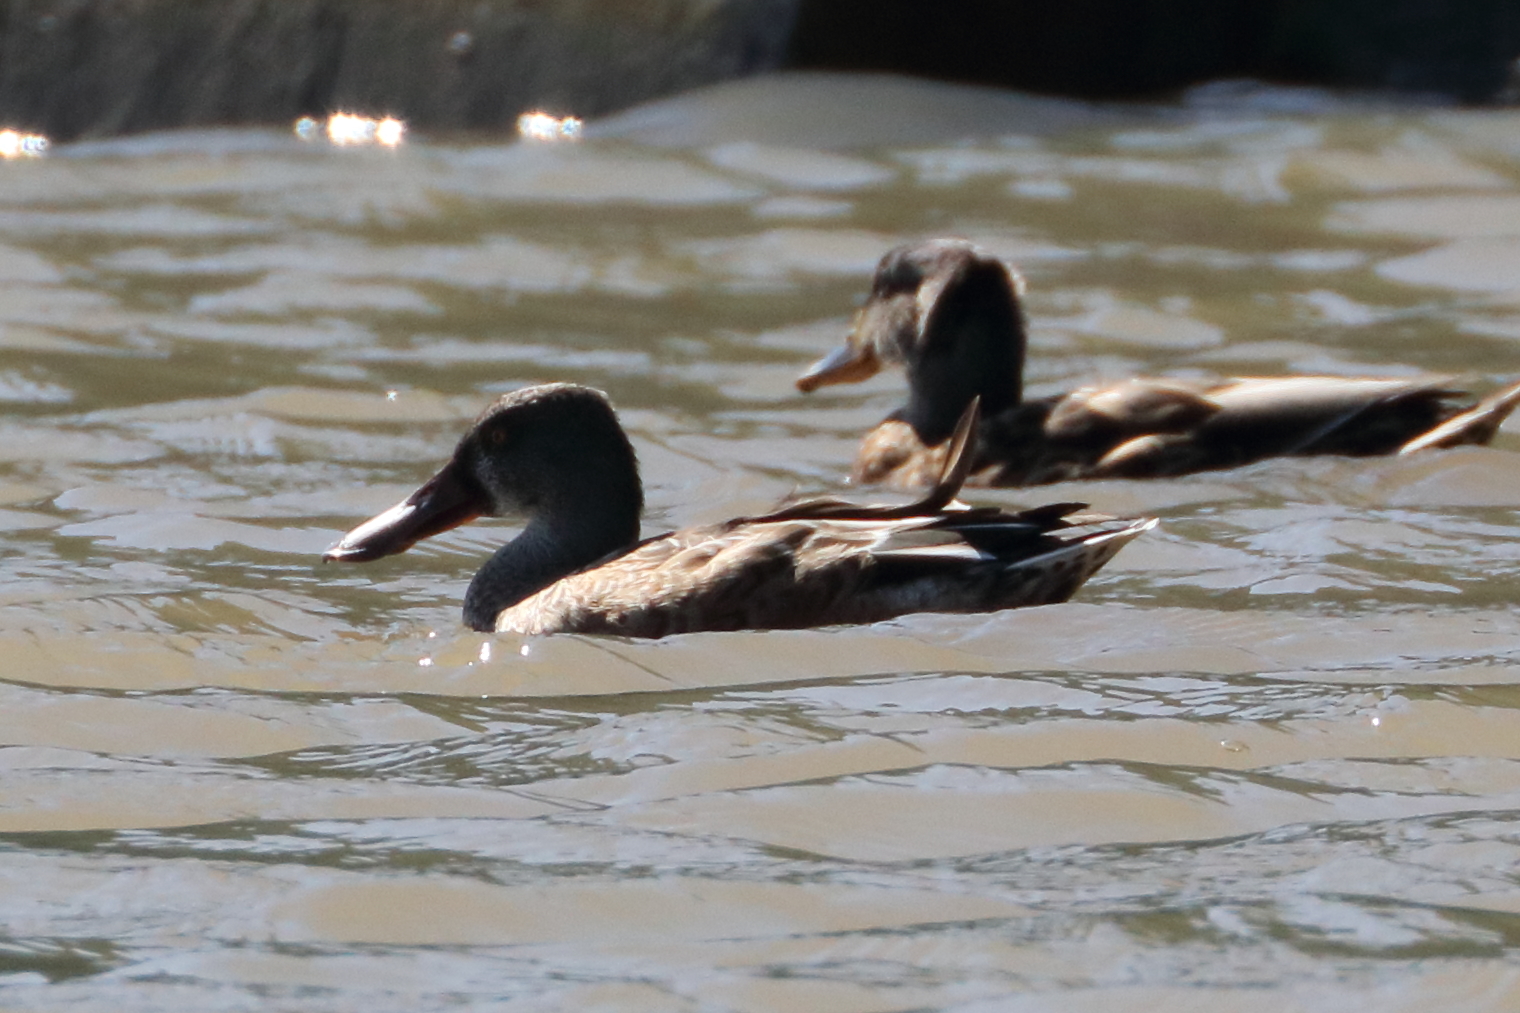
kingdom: Animalia
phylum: Chordata
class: Aves
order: Anseriformes
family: Anatidae
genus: Spatula
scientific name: Spatula clypeata
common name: Northern shoveler
